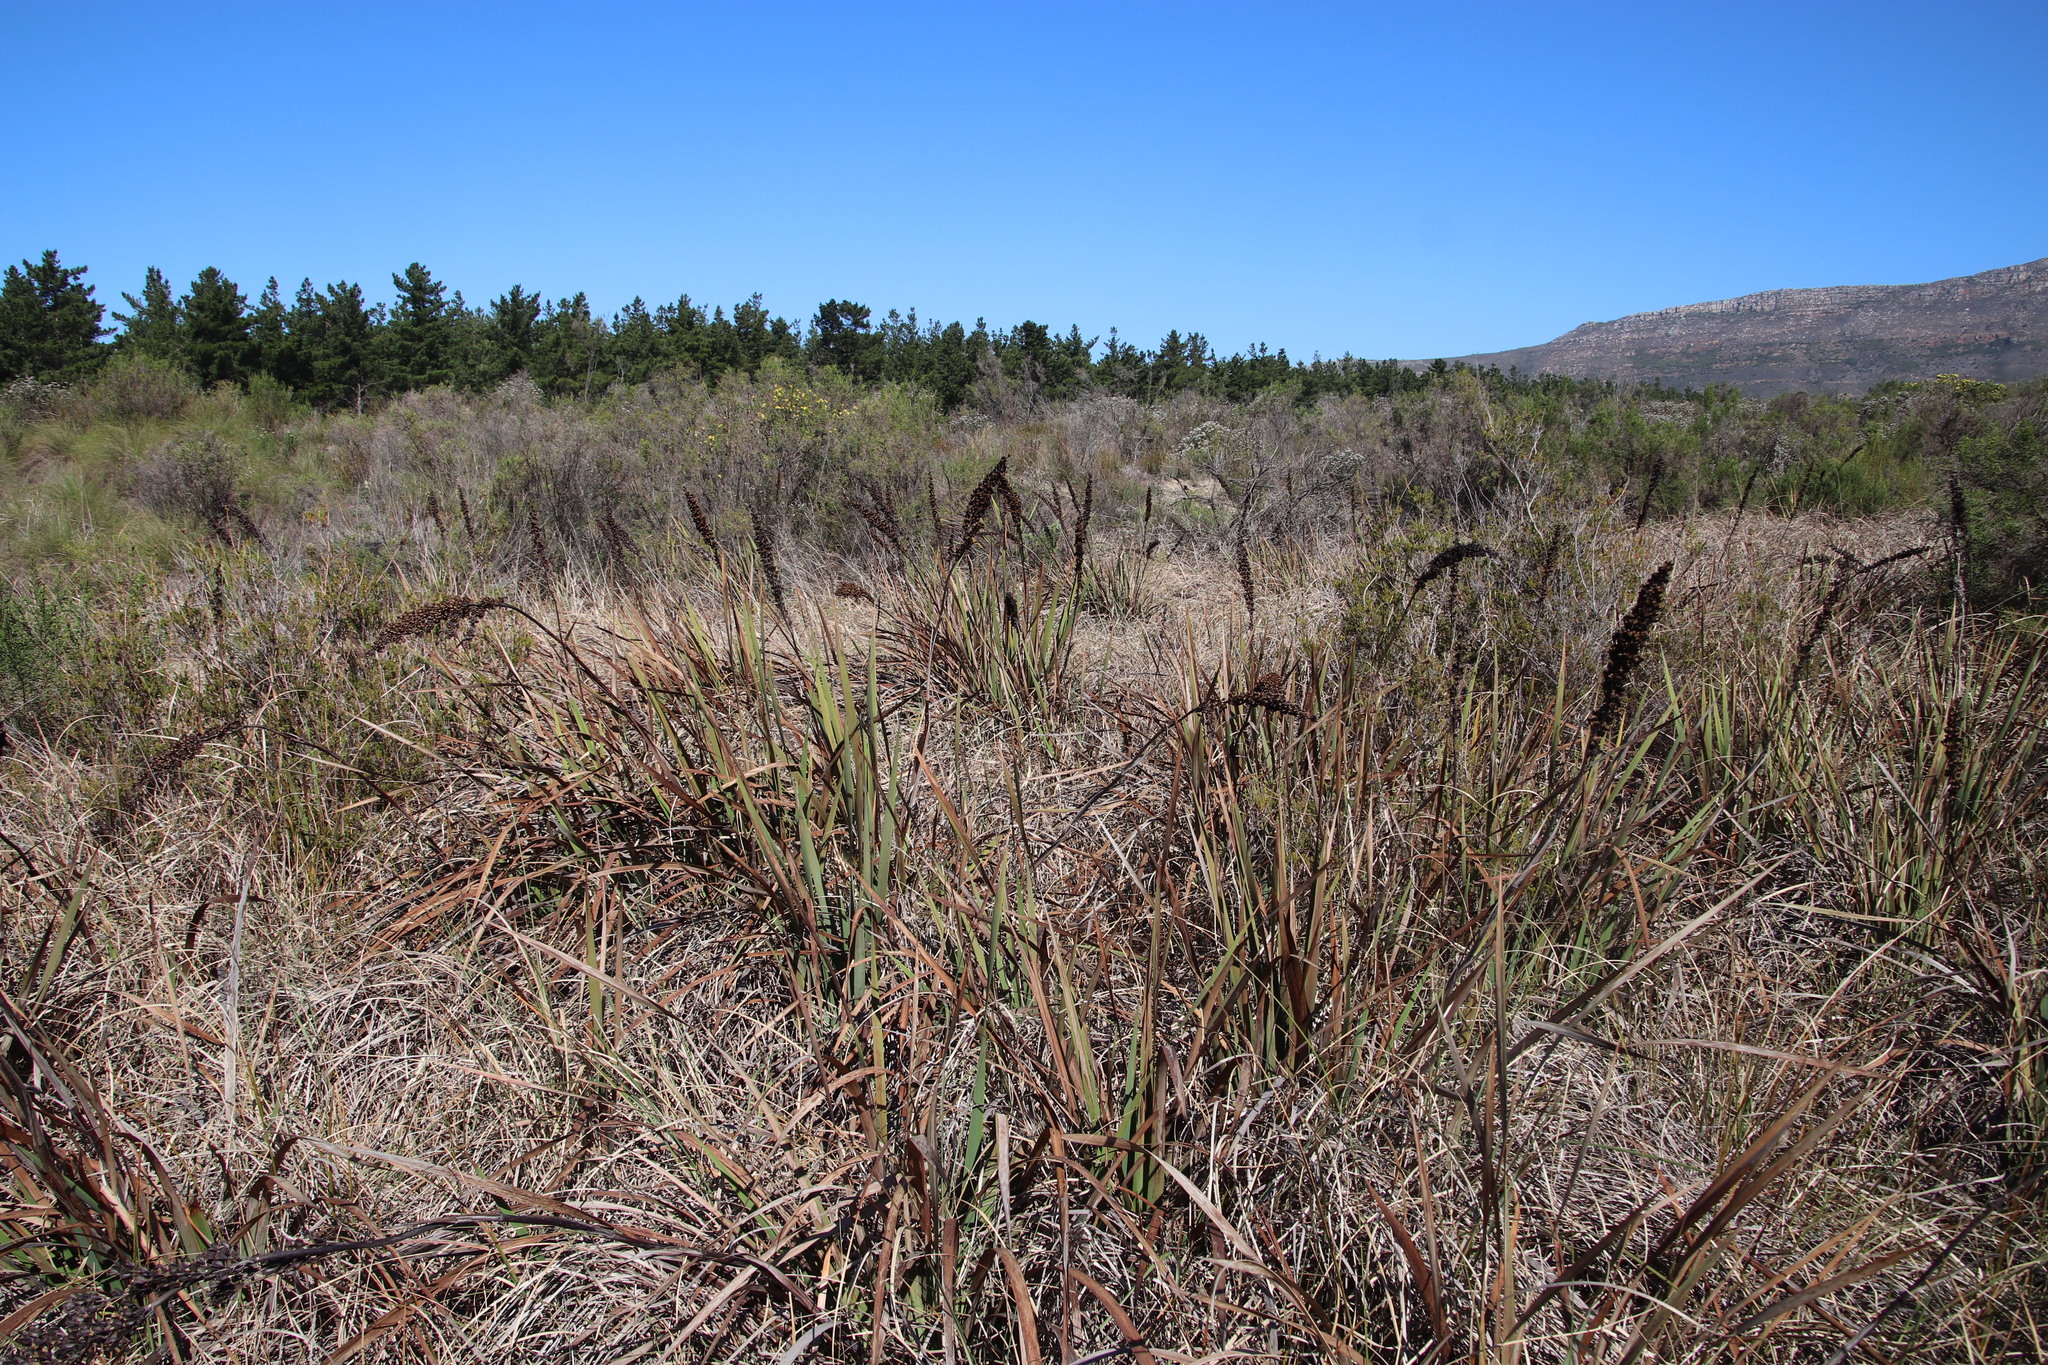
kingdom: Plantae
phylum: Tracheophyta
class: Liliopsida
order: Asparagales
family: Iridaceae
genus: Aristea
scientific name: Aristea capitata
